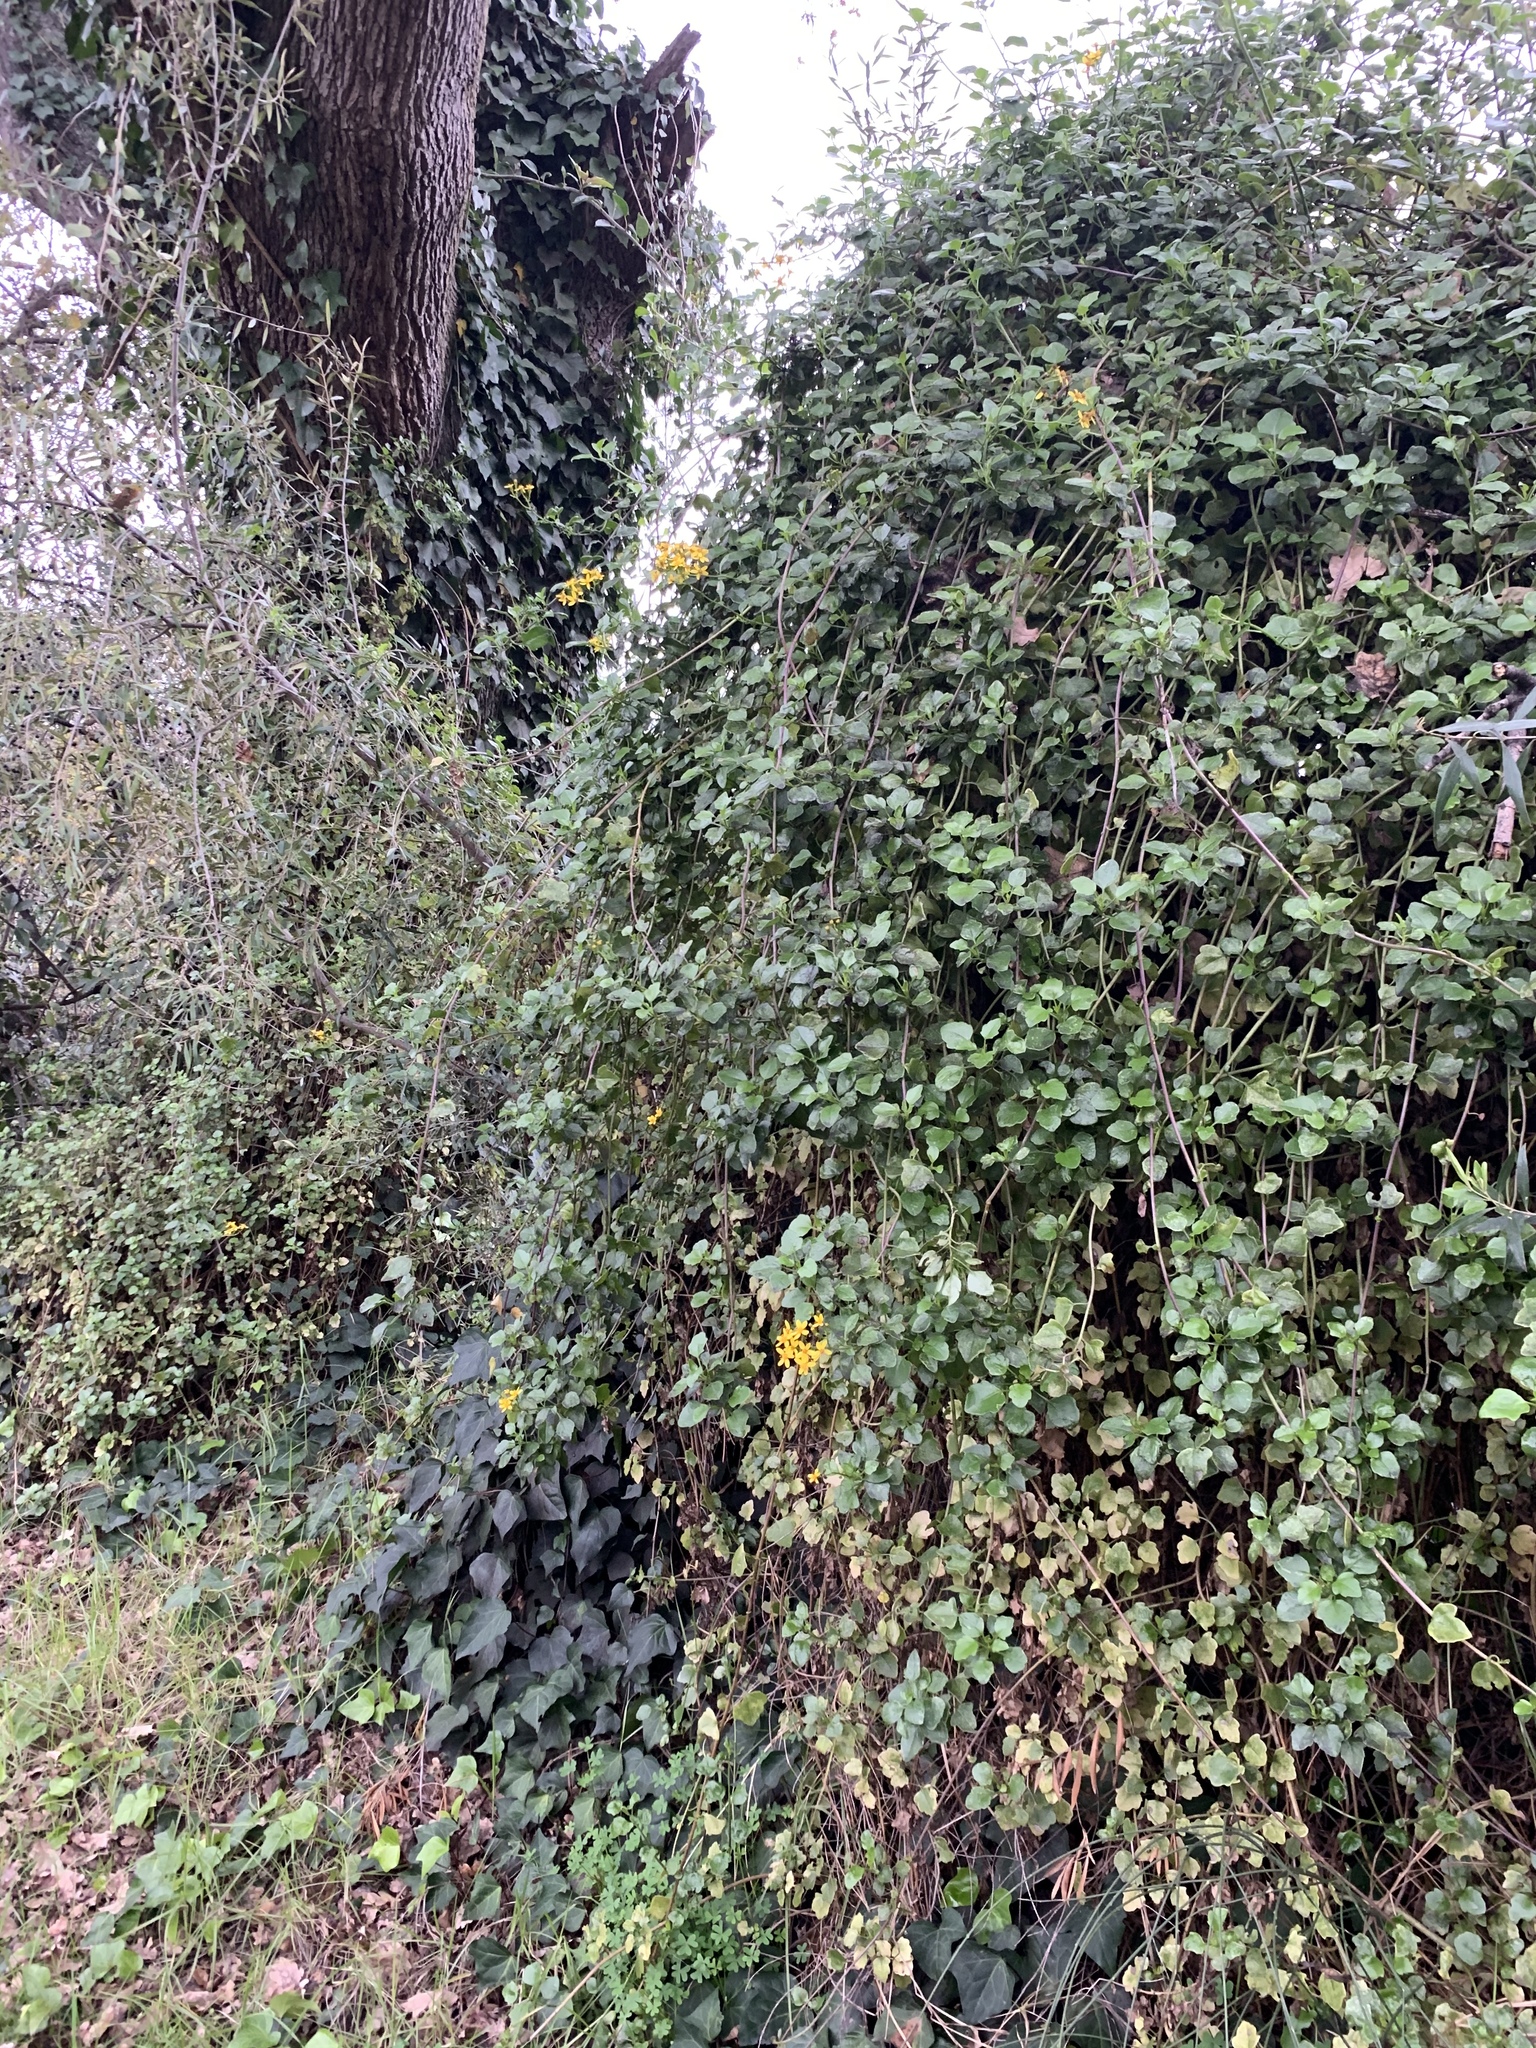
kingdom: Plantae
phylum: Tracheophyta
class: Magnoliopsida
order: Asterales
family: Asteraceae
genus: Senecio
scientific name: Senecio angulatus
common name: Climbing groundsel
